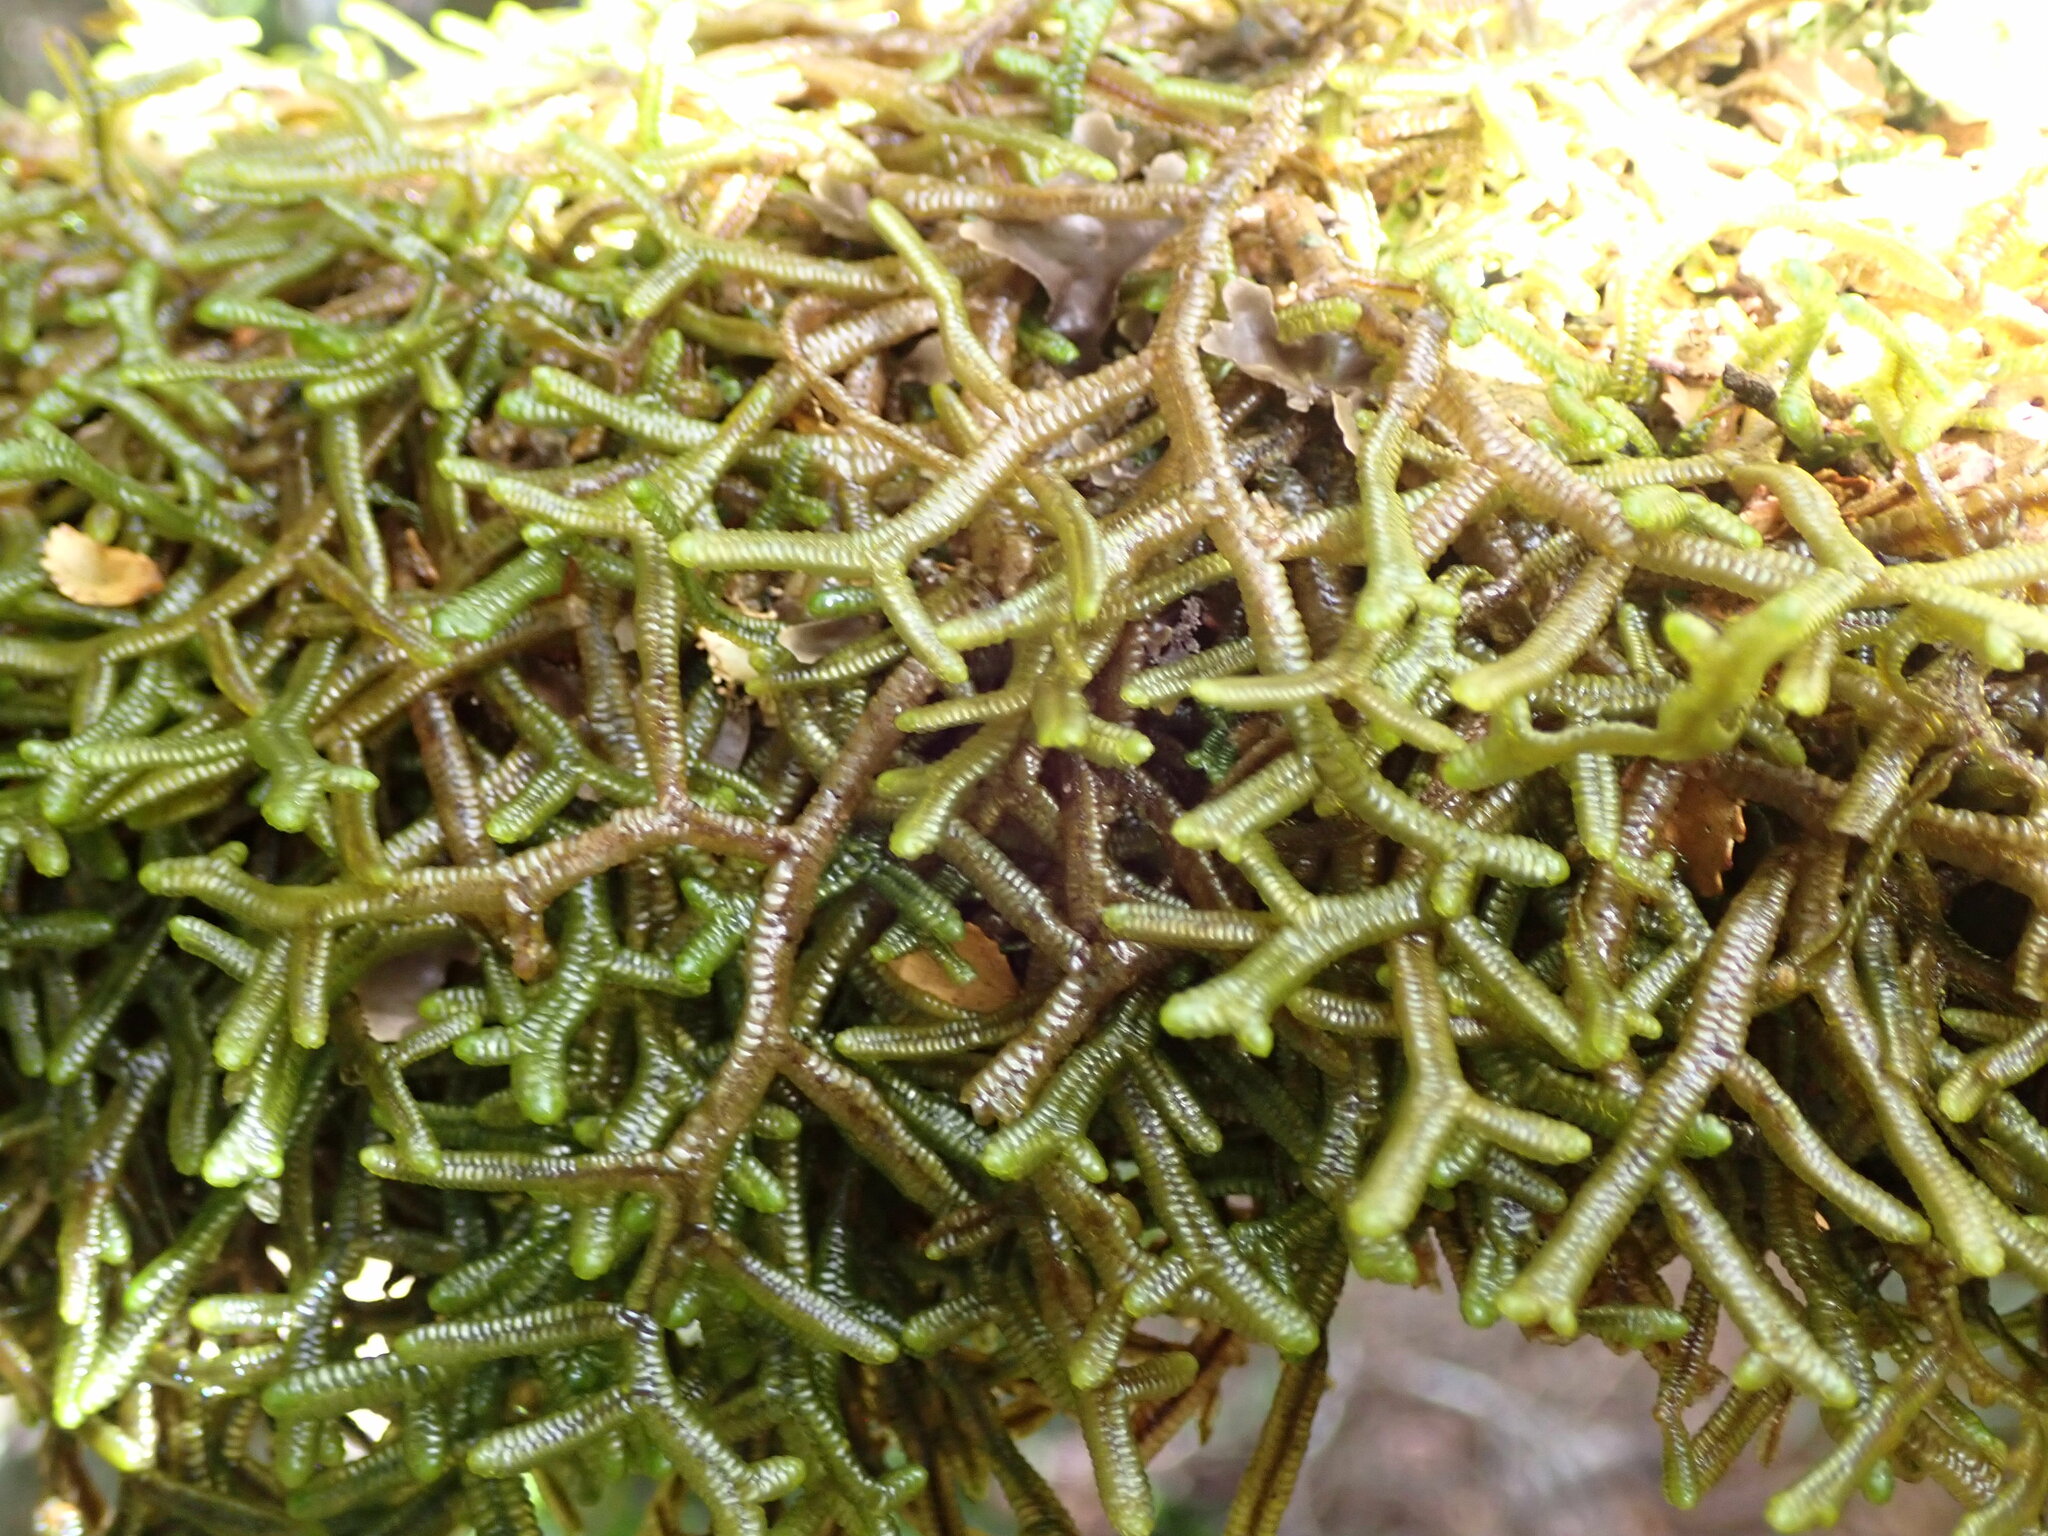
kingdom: Plantae
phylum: Marchantiophyta
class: Jungermanniopsida
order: Porellales
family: Porellaceae
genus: Porella
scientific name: Porella elegantula
